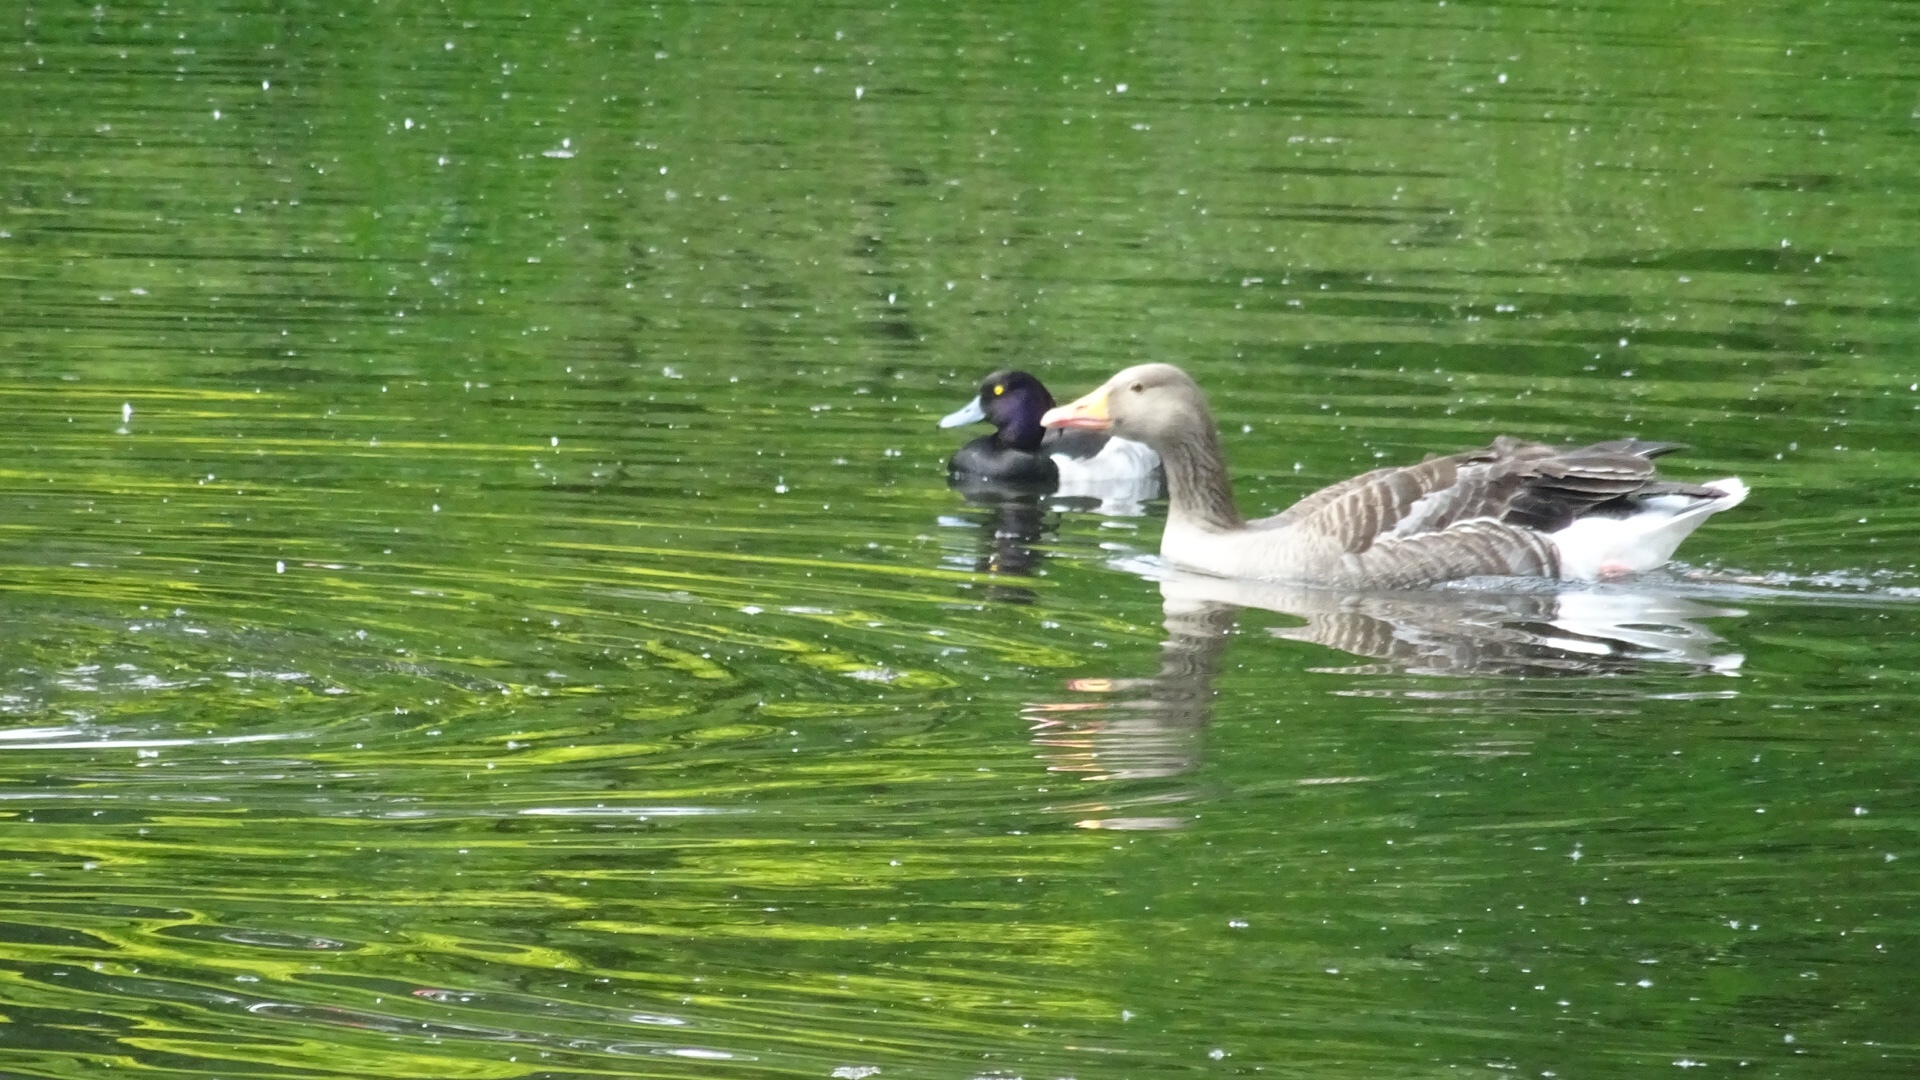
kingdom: Animalia
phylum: Chordata
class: Aves
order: Anseriformes
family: Anatidae
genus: Anser
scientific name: Anser anser
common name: Greylag goose
